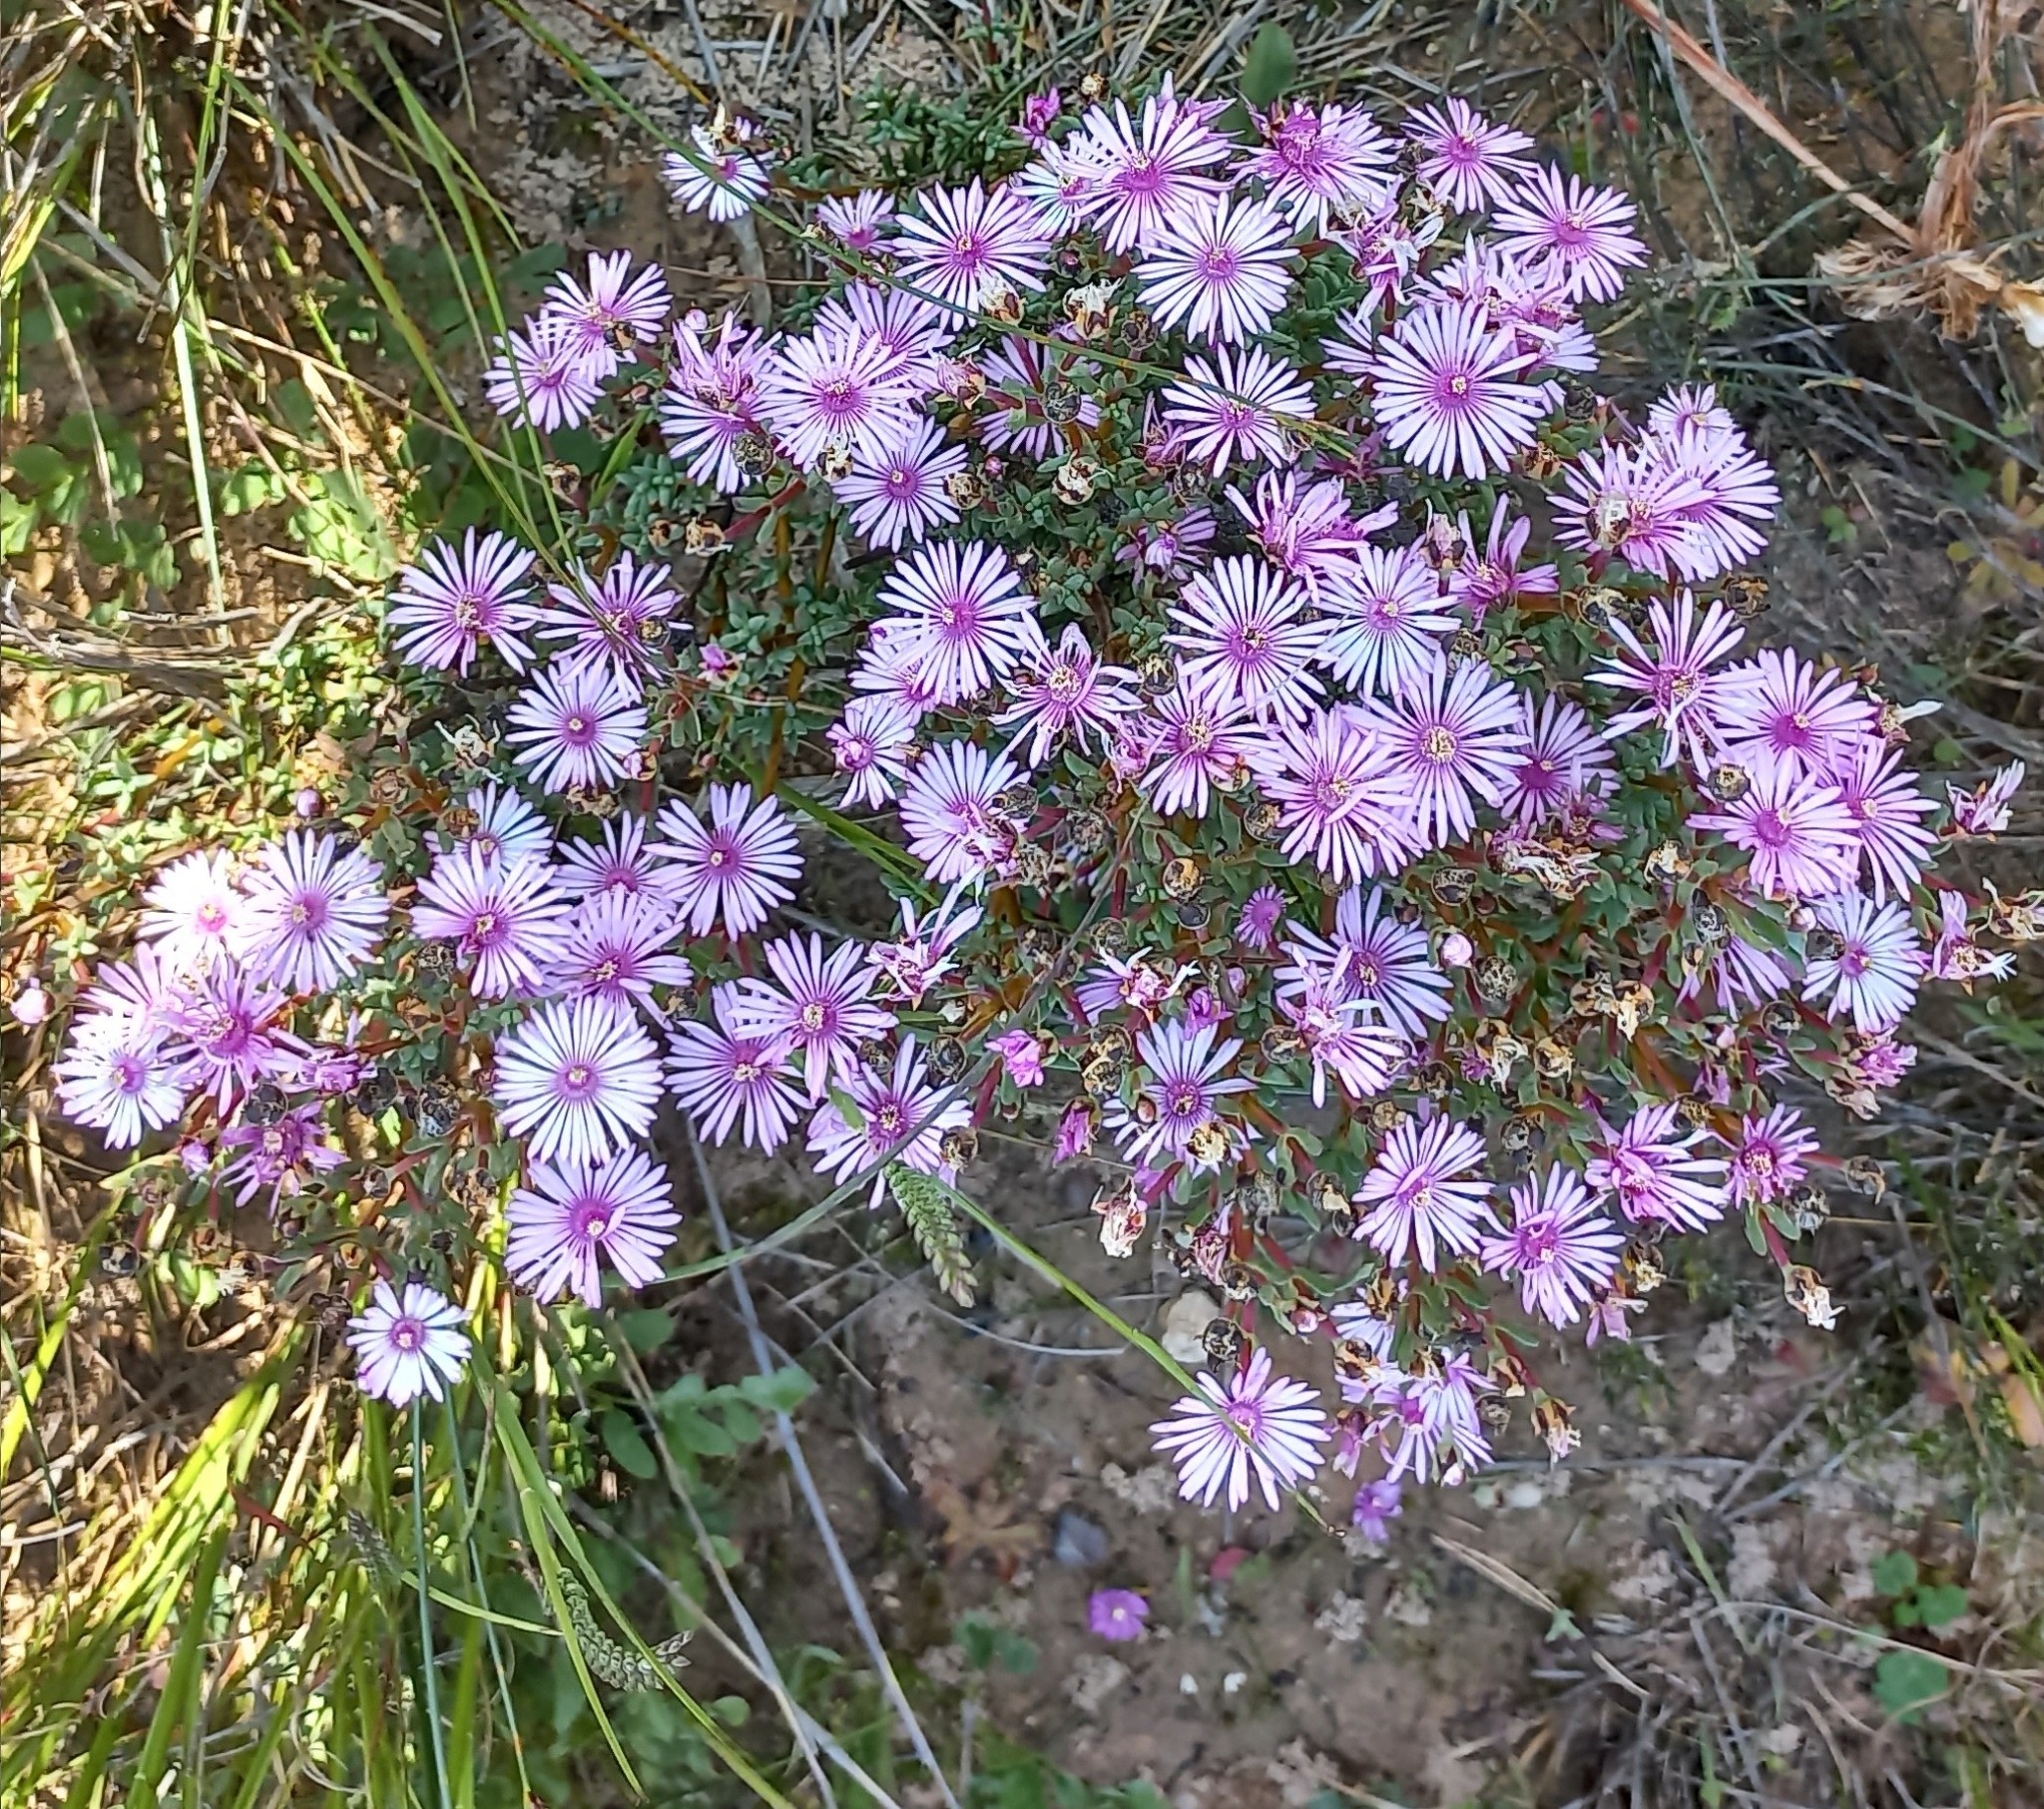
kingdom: Plantae
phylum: Tracheophyta
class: Magnoliopsida
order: Caryophyllales
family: Aizoaceae
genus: Lampranthus
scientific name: Lampranthus elegans
